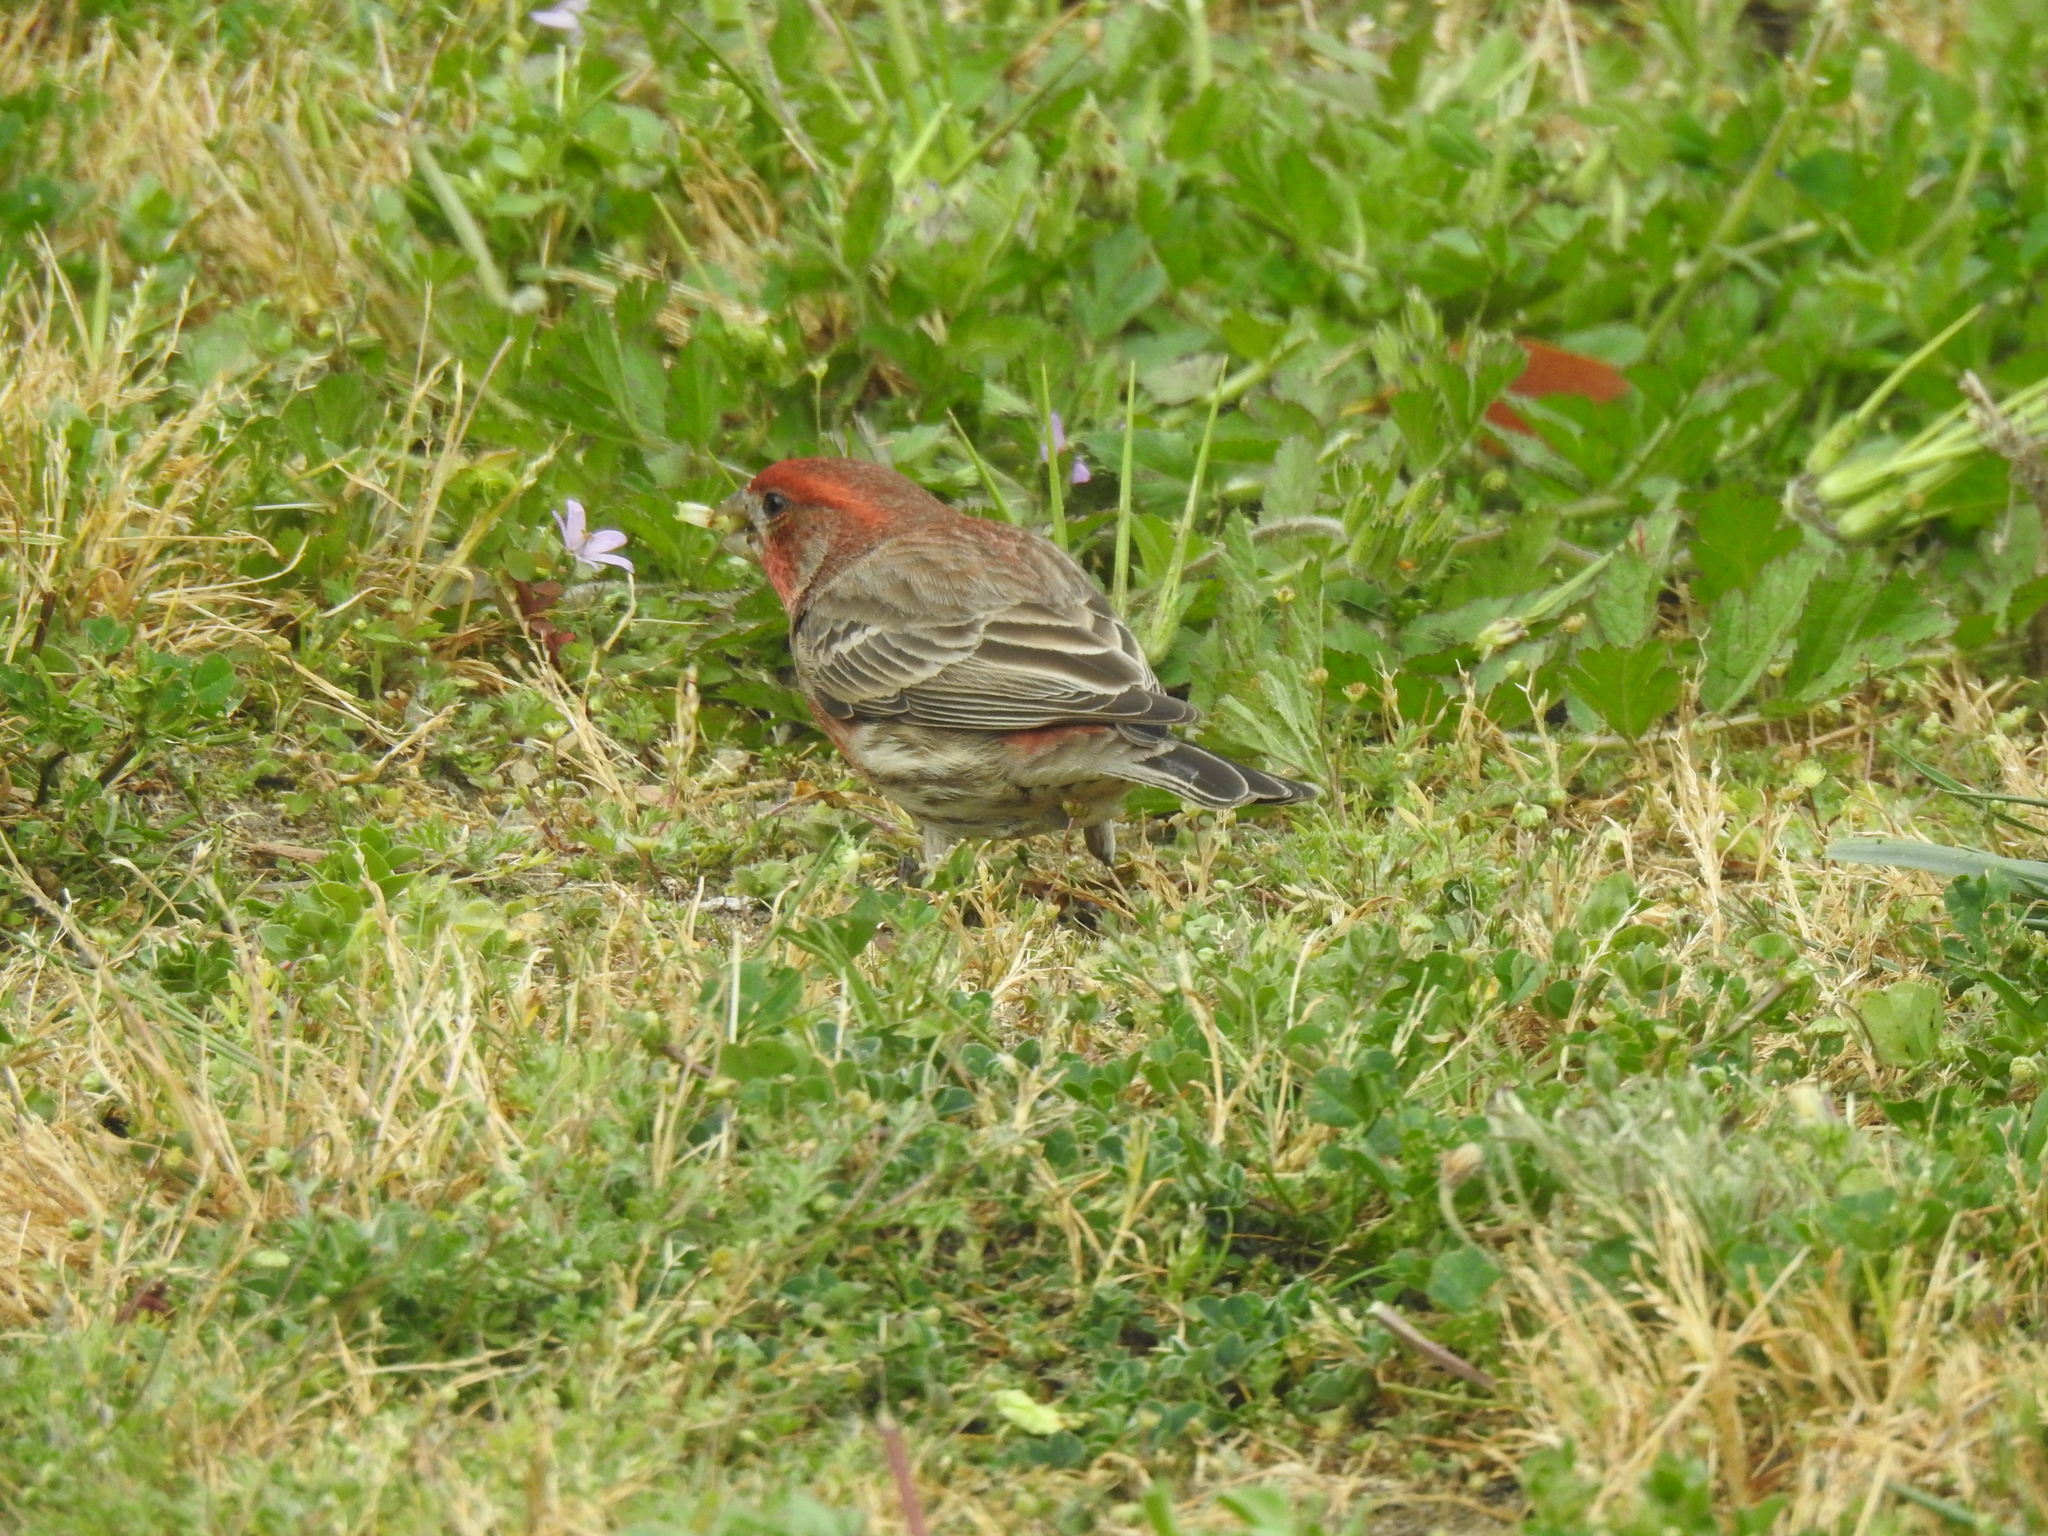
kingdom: Animalia
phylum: Chordata
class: Aves
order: Passeriformes
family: Fringillidae
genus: Haemorhous
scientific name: Haemorhous mexicanus
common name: House finch
